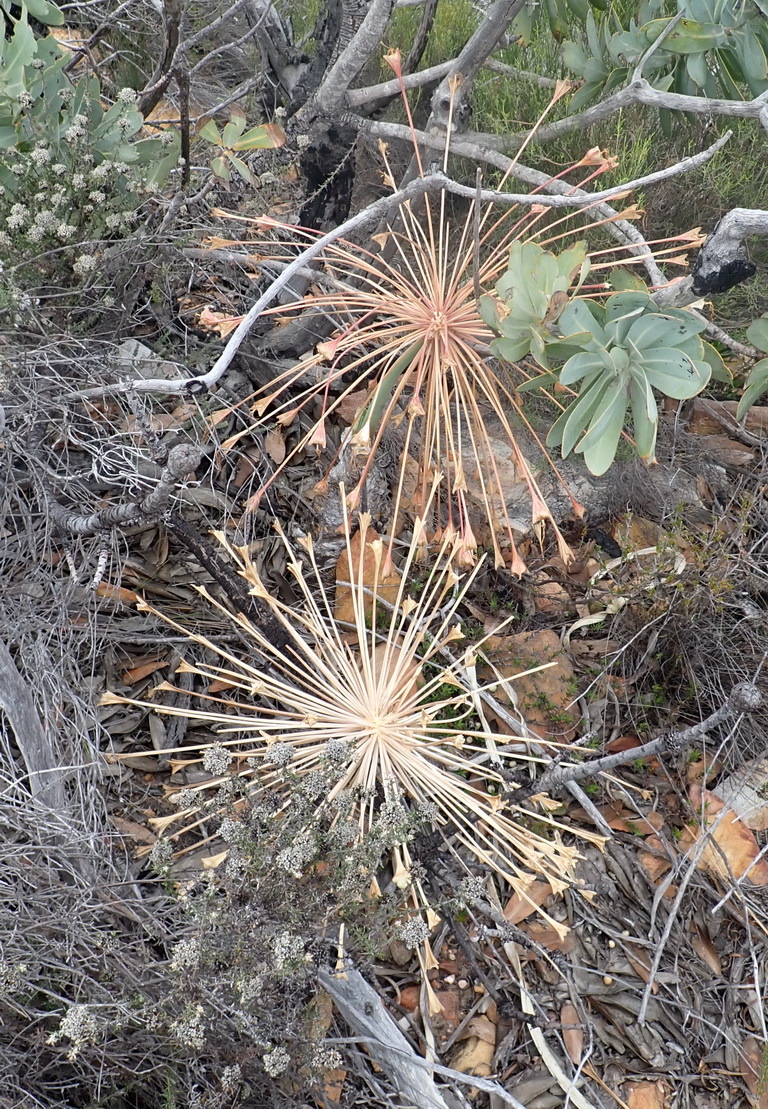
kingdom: Plantae
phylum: Tracheophyta
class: Liliopsida
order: Asparagales
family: Amaryllidaceae
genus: Boophone
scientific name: Boophone disticha
